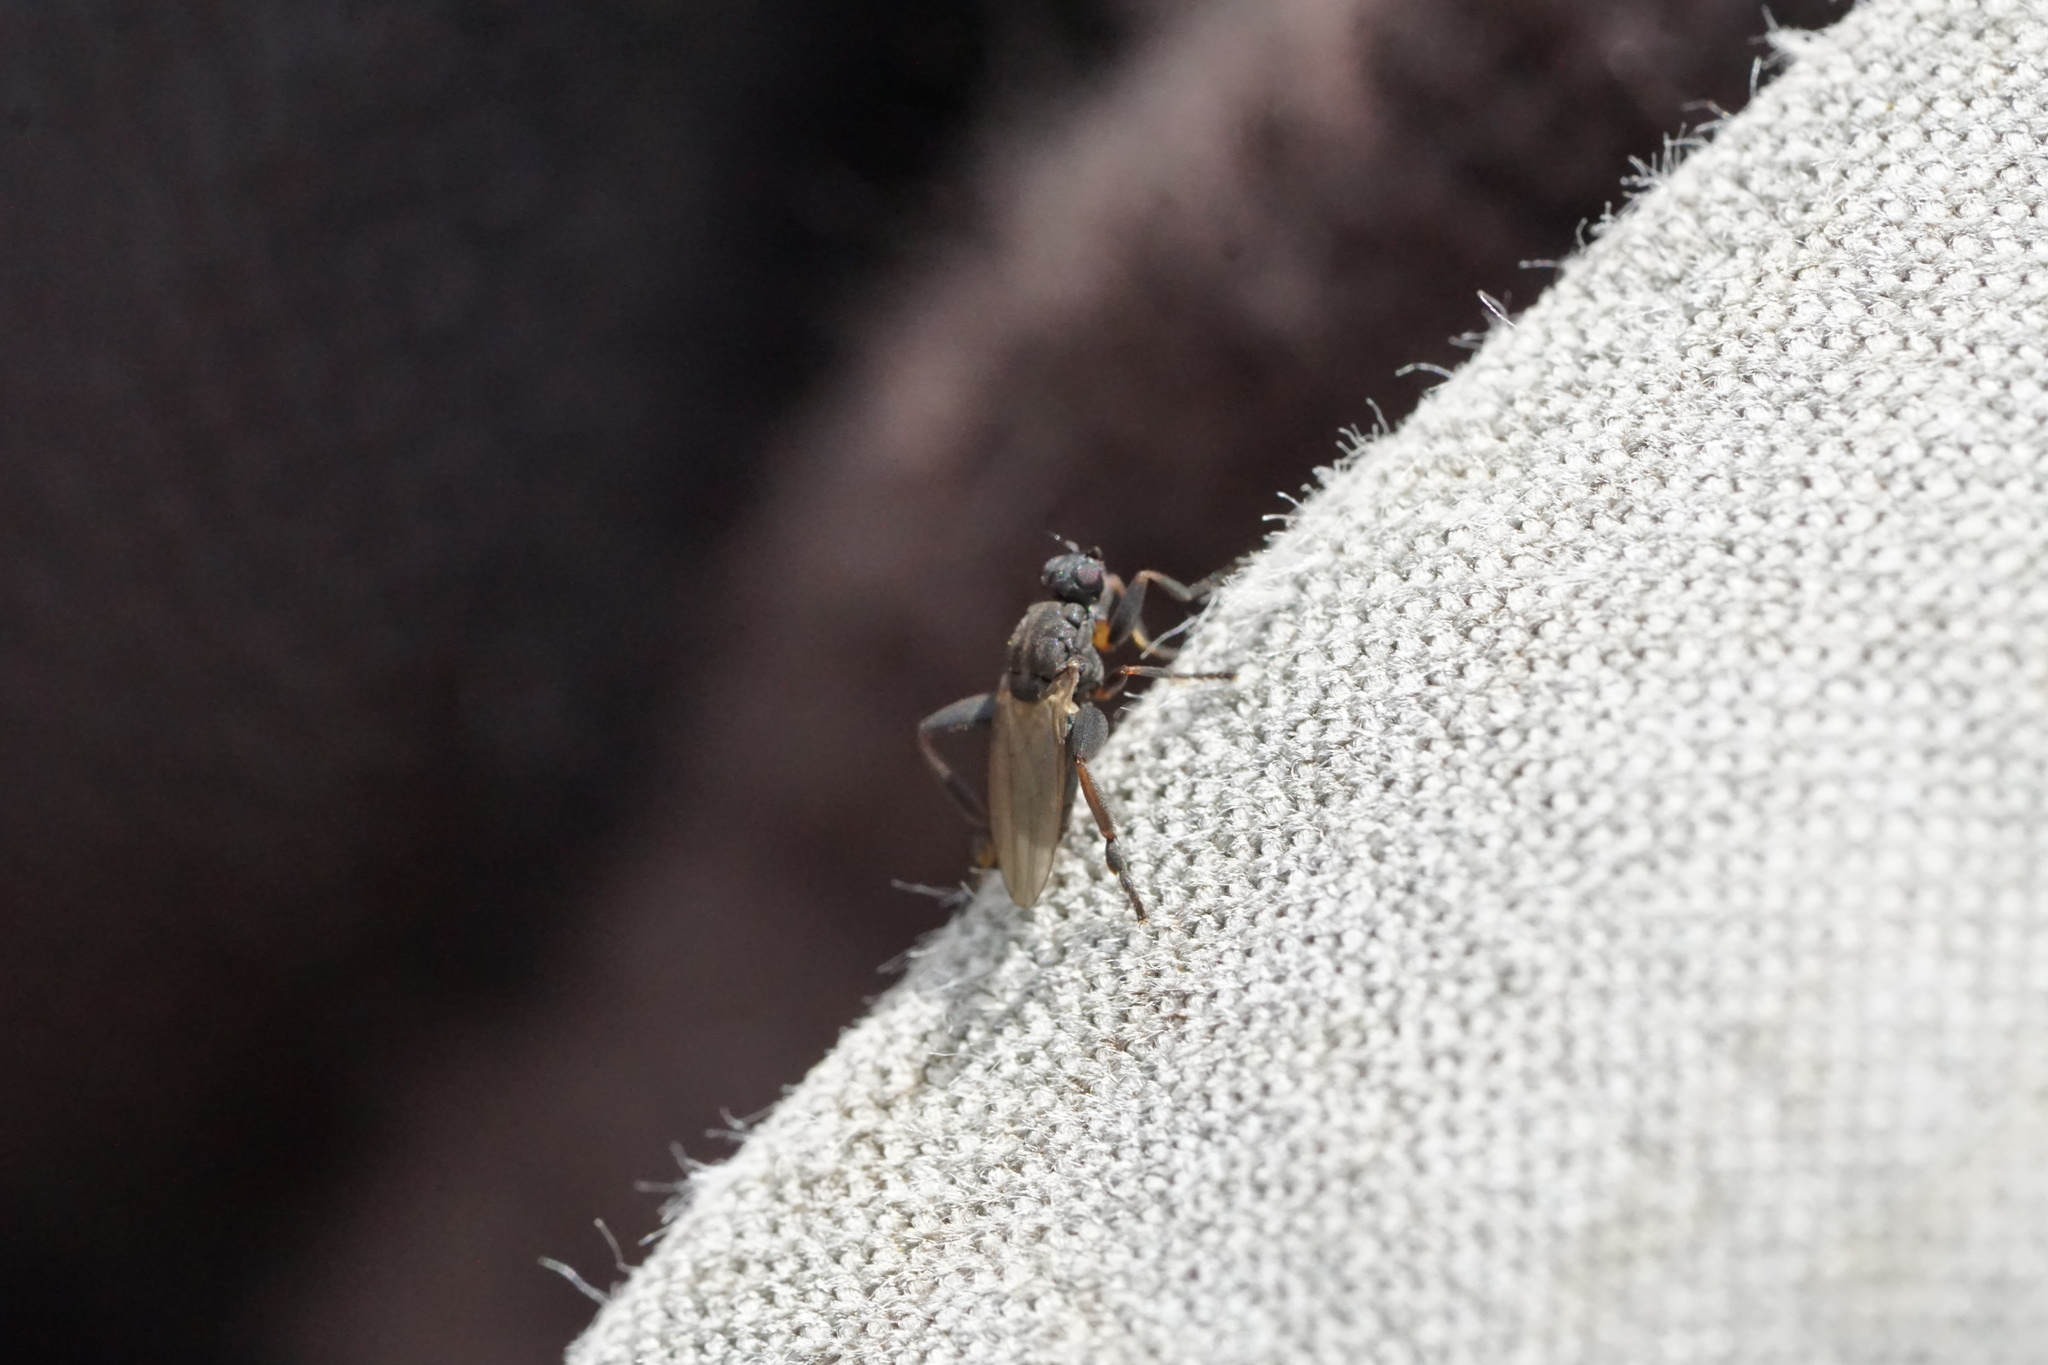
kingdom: Animalia
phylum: Arthropoda
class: Insecta
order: Diptera
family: Sphaeroceridae
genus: Sphaerocera
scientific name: Sphaerocera curvipes
